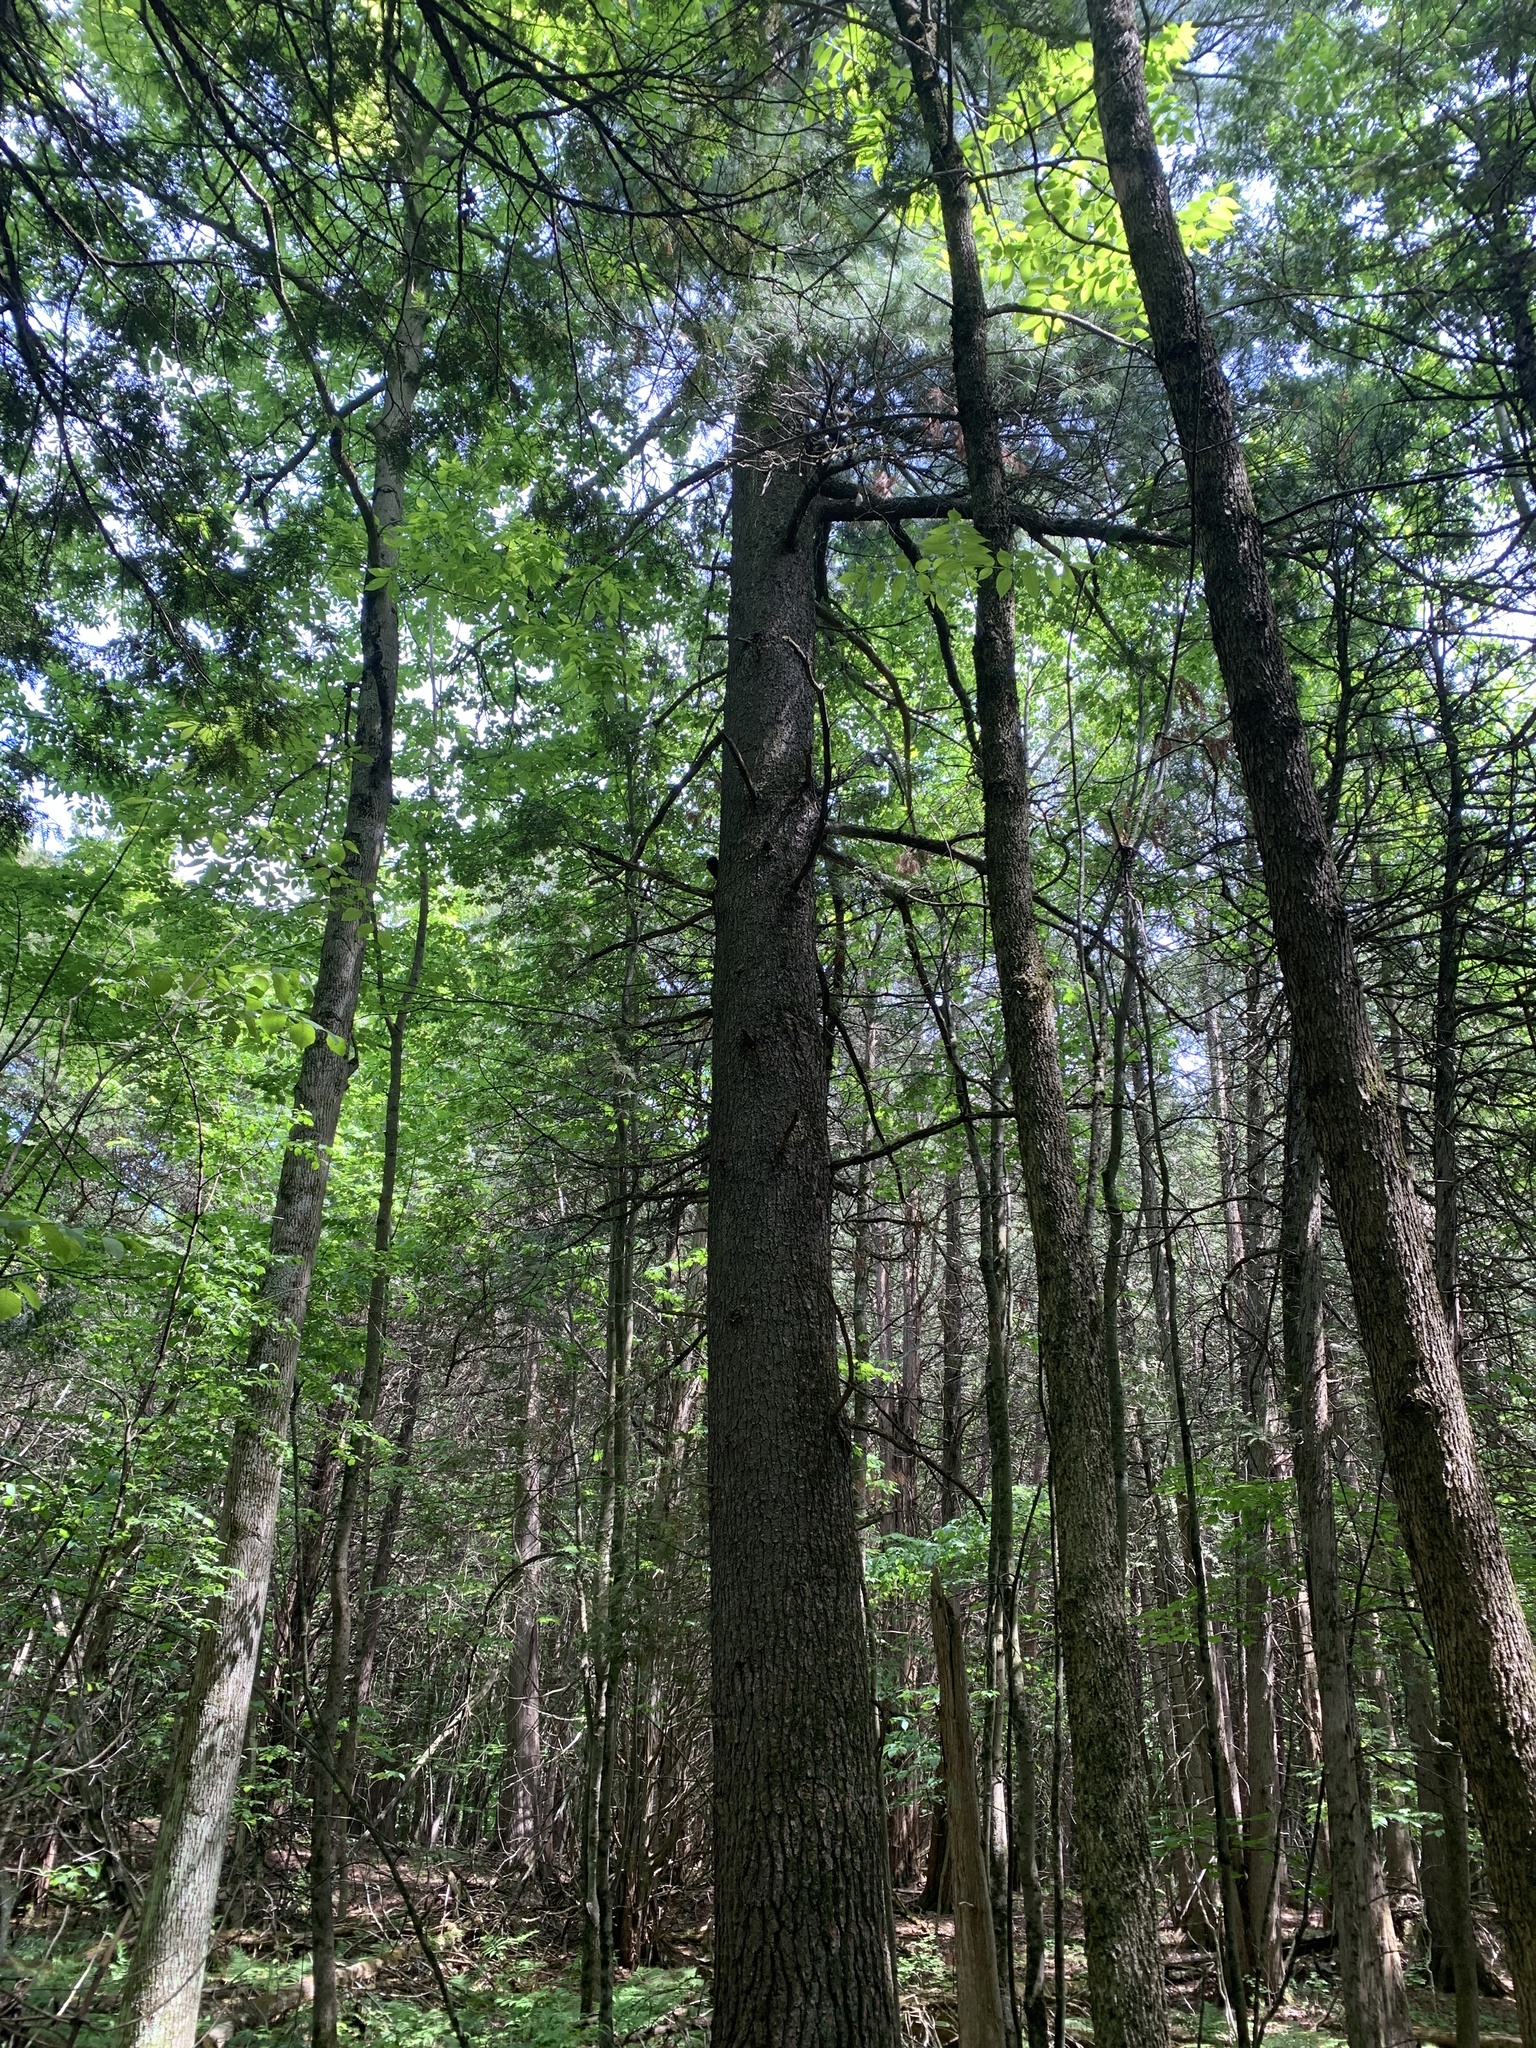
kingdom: Plantae
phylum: Tracheophyta
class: Pinopsida
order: Pinales
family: Pinaceae
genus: Pinus
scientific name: Pinus strobus
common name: Weymouth pine
